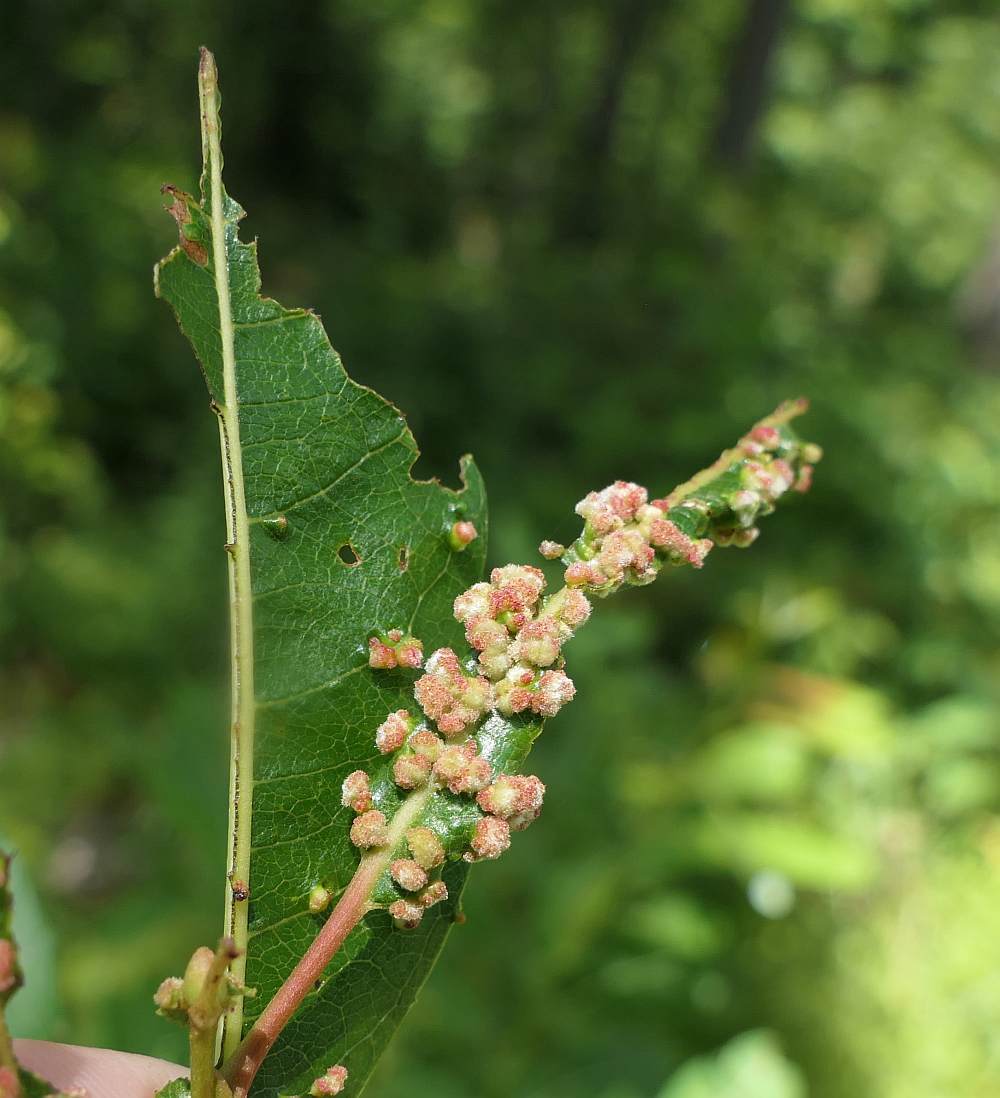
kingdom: Animalia
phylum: Arthropoda
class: Arachnida
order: Trombidiformes
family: Eriophyidae
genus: Aculus
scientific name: Aculus tetanothrix
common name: Willow bead gall mite
